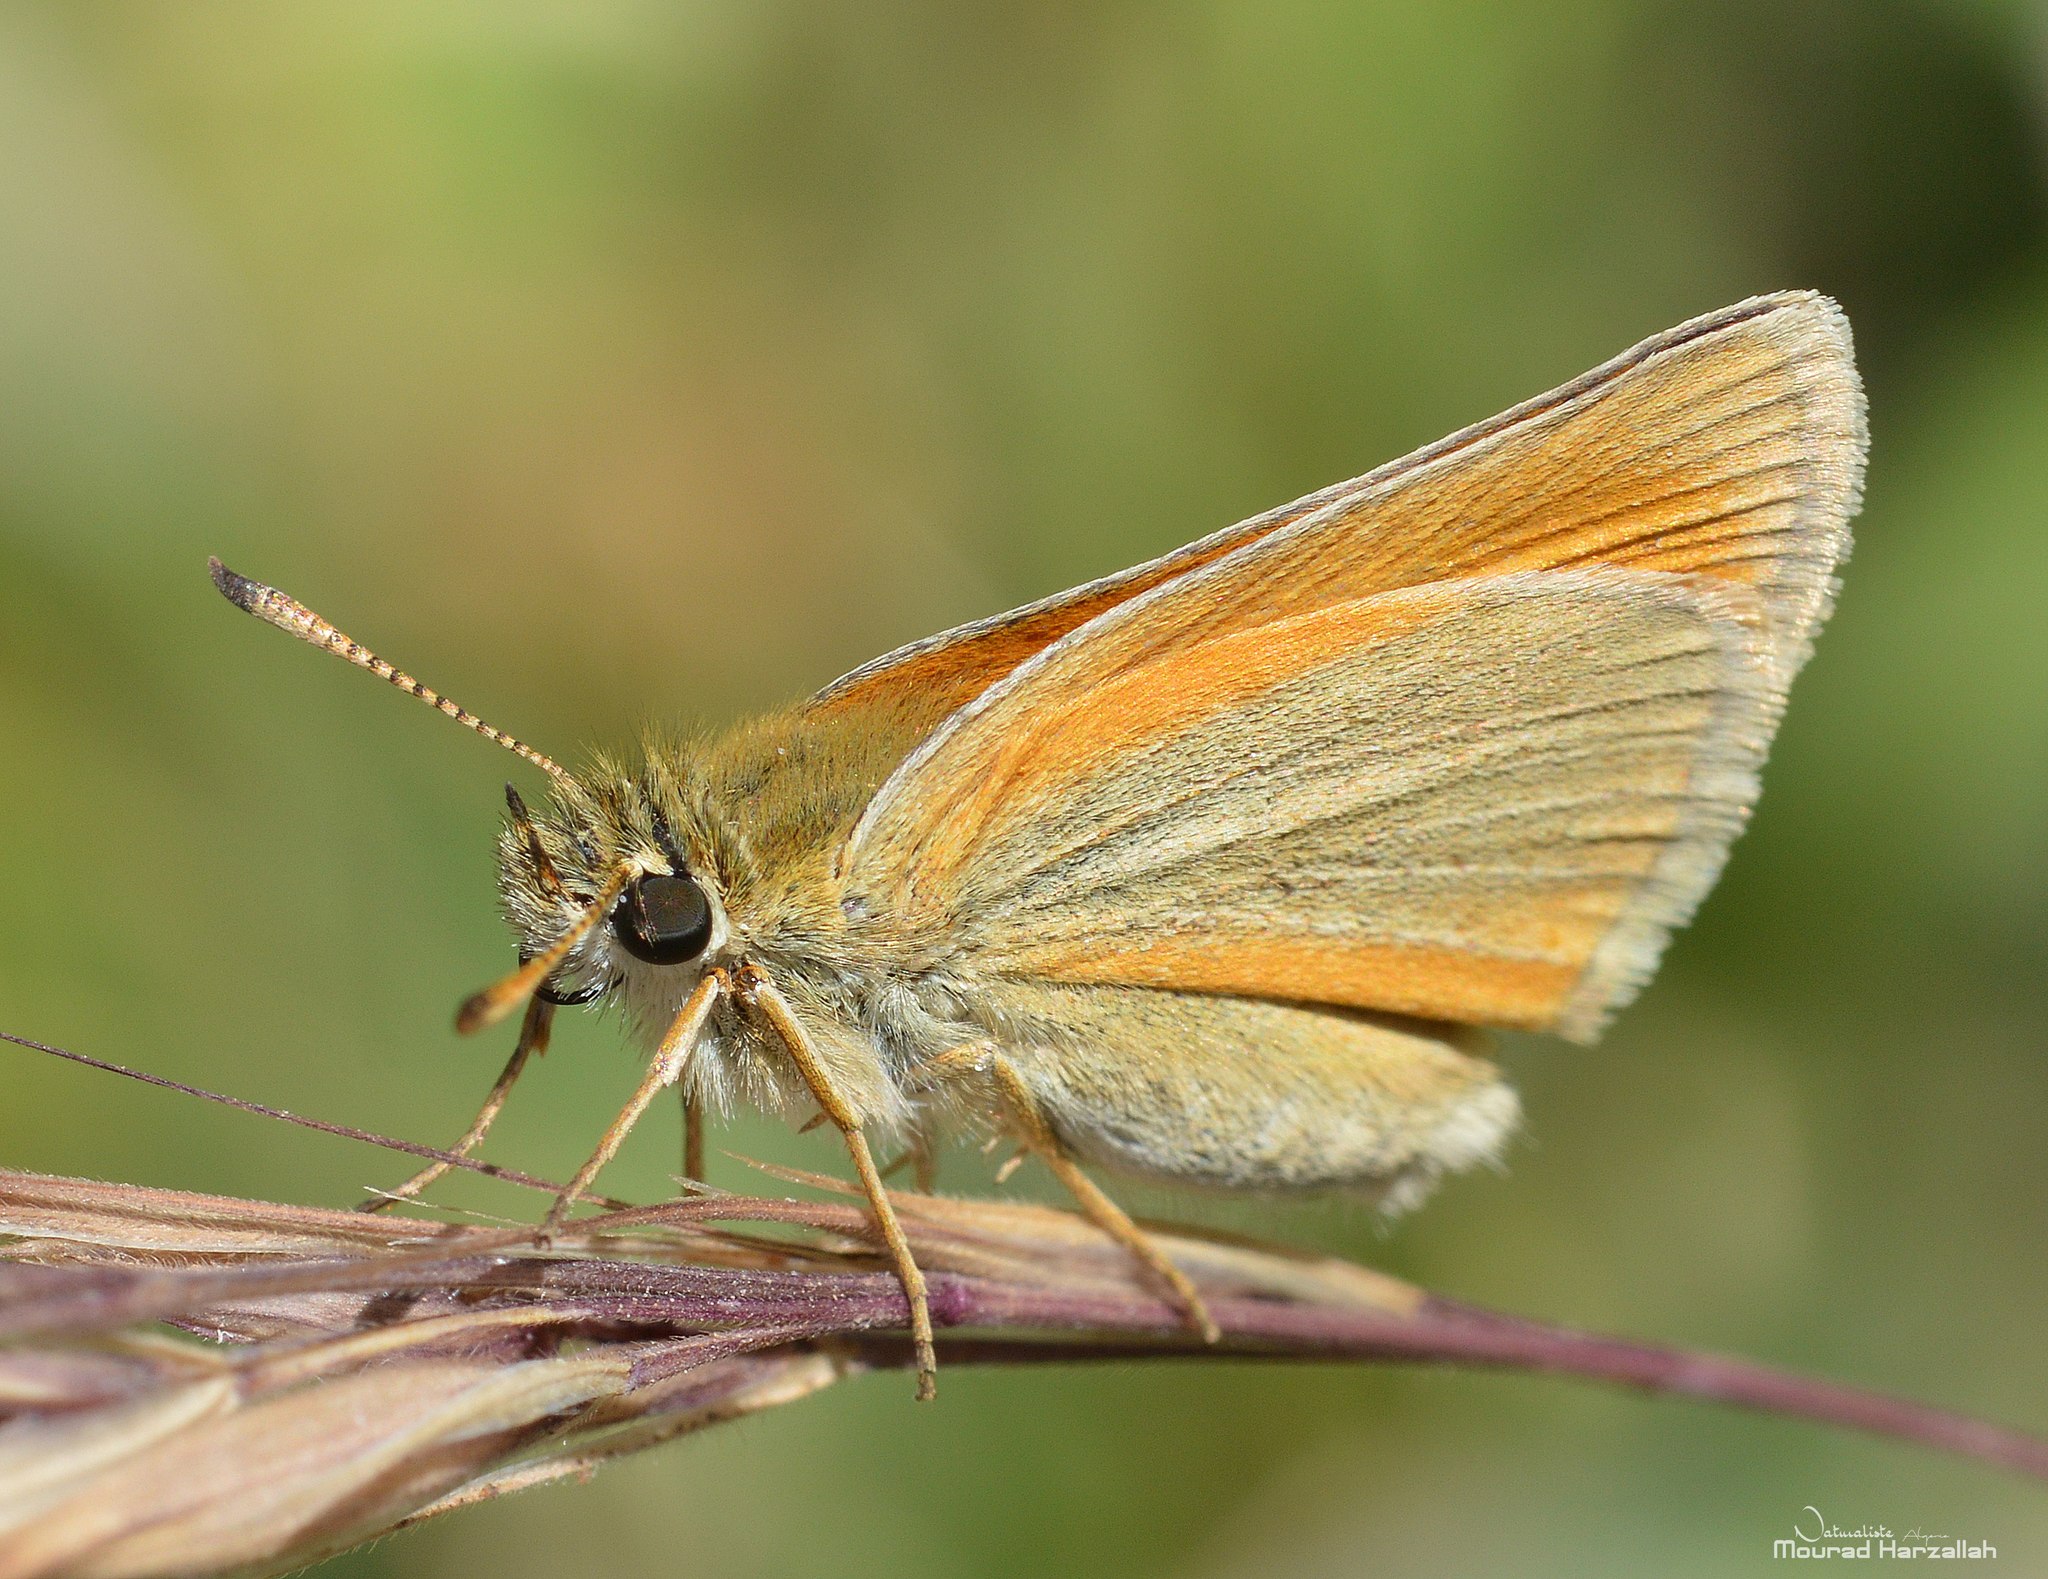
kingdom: Animalia
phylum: Arthropoda
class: Insecta
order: Lepidoptera
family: Hesperiidae
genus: Thymelicus
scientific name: Thymelicus lineola
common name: Essex skipper
